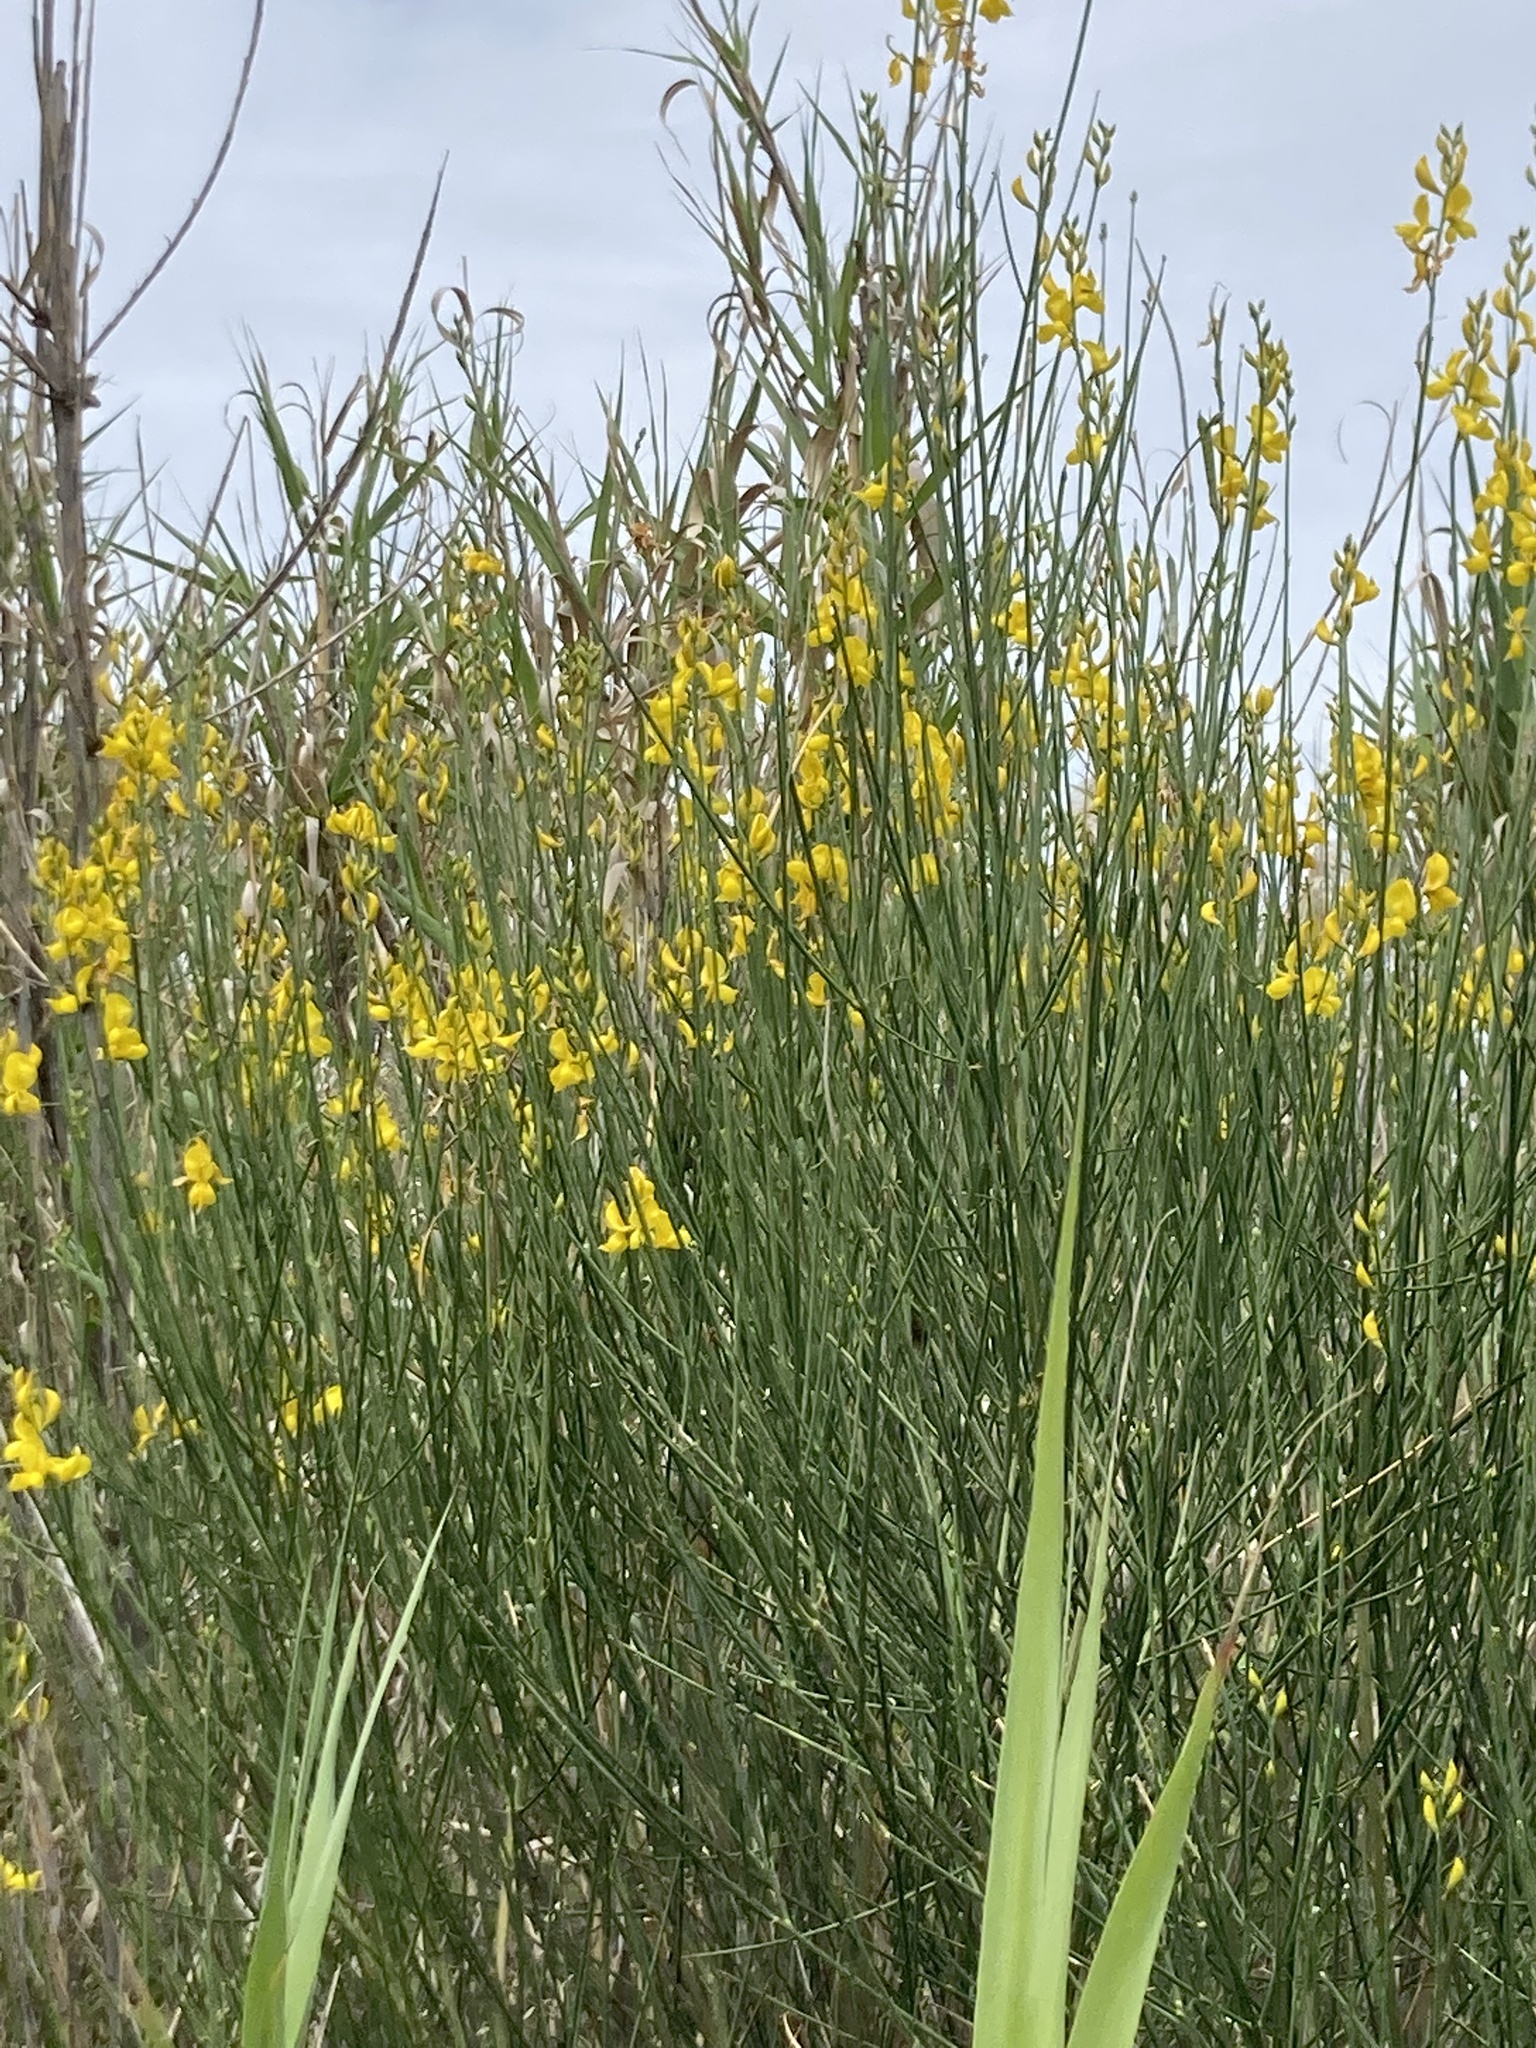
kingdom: Plantae
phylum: Tracheophyta
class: Magnoliopsida
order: Fabales
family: Fabaceae
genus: Spartium
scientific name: Spartium junceum
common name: Spanish broom
